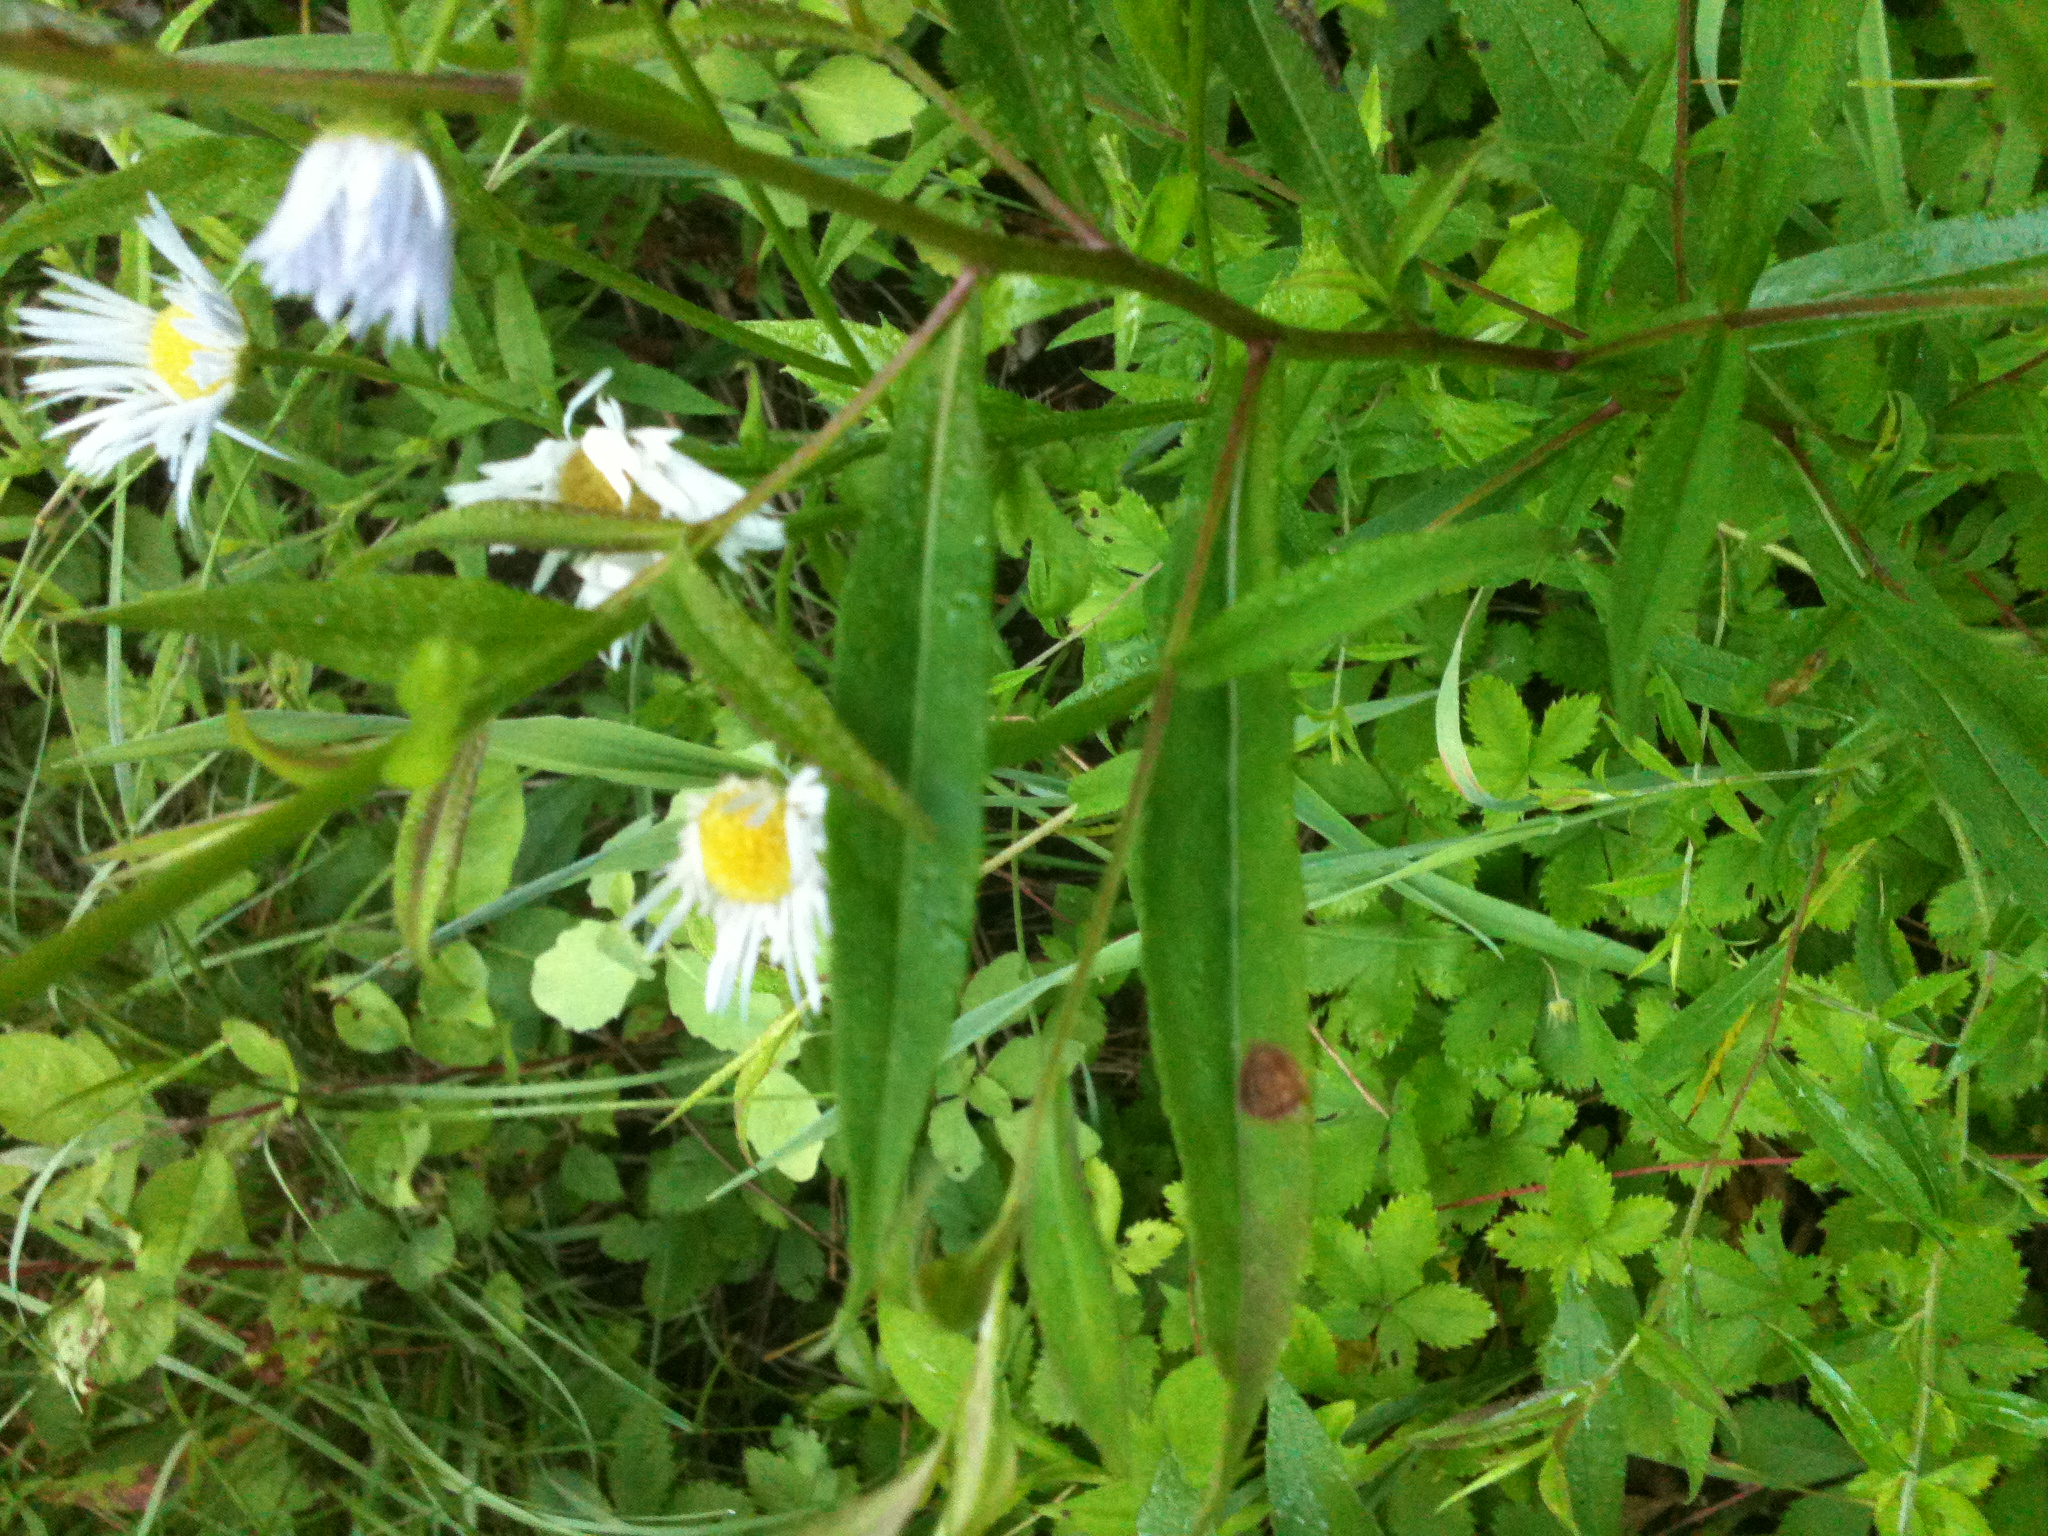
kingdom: Plantae
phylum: Tracheophyta
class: Magnoliopsida
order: Asterales
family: Asteraceae
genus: Erigeron
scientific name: Erigeron strigosus
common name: Common eastern fleabane
